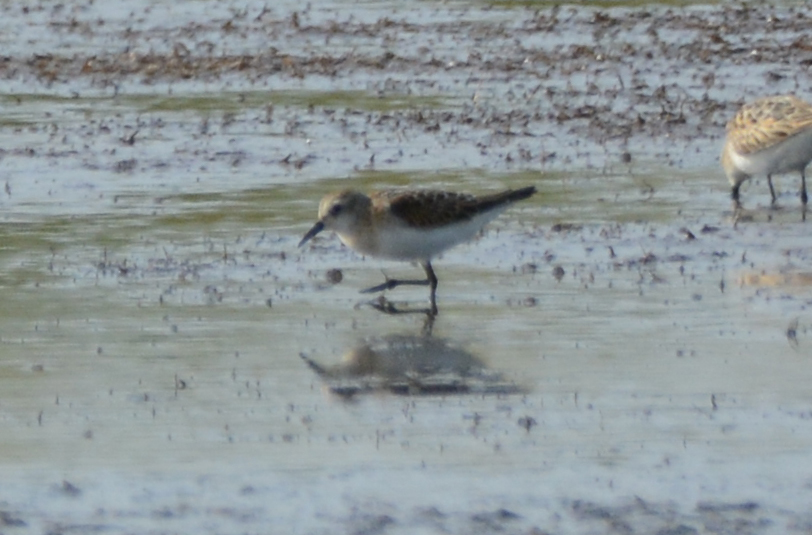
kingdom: Animalia
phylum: Chordata
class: Aves
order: Charadriiformes
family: Scolopacidae
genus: Calidris
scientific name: Calidris minuta
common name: Little stint
